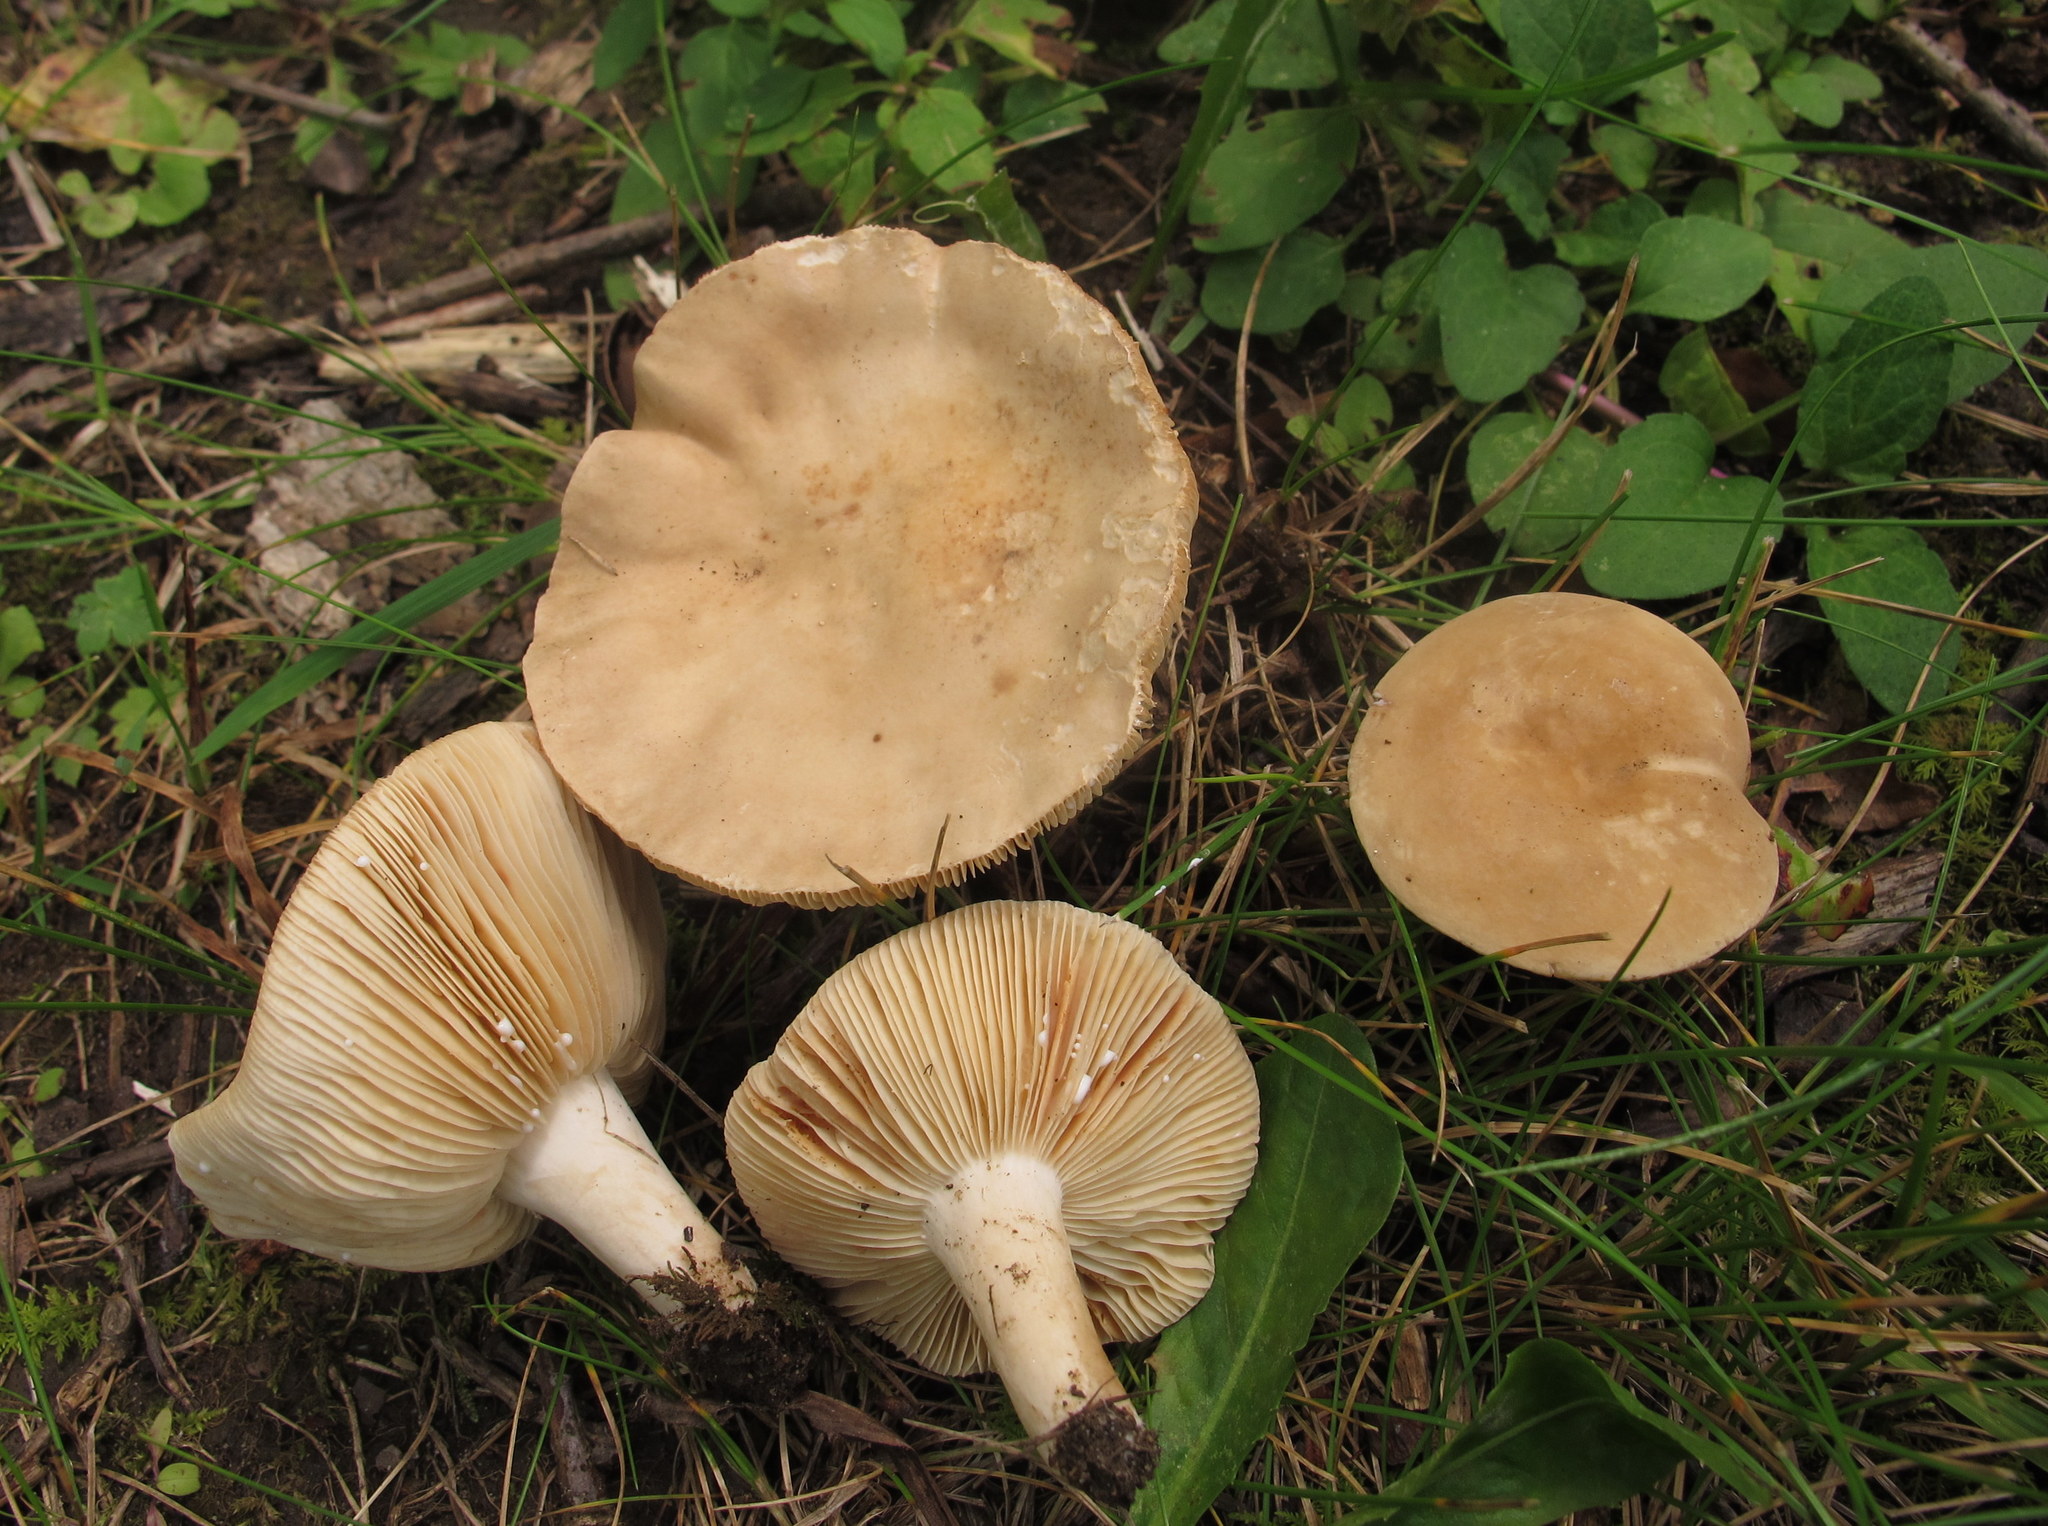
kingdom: Fungi
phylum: Basidiomycota
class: Agaricomycetes
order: Russulales
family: Russulaceae
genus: Lactarius
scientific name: Lactarius fumosus
